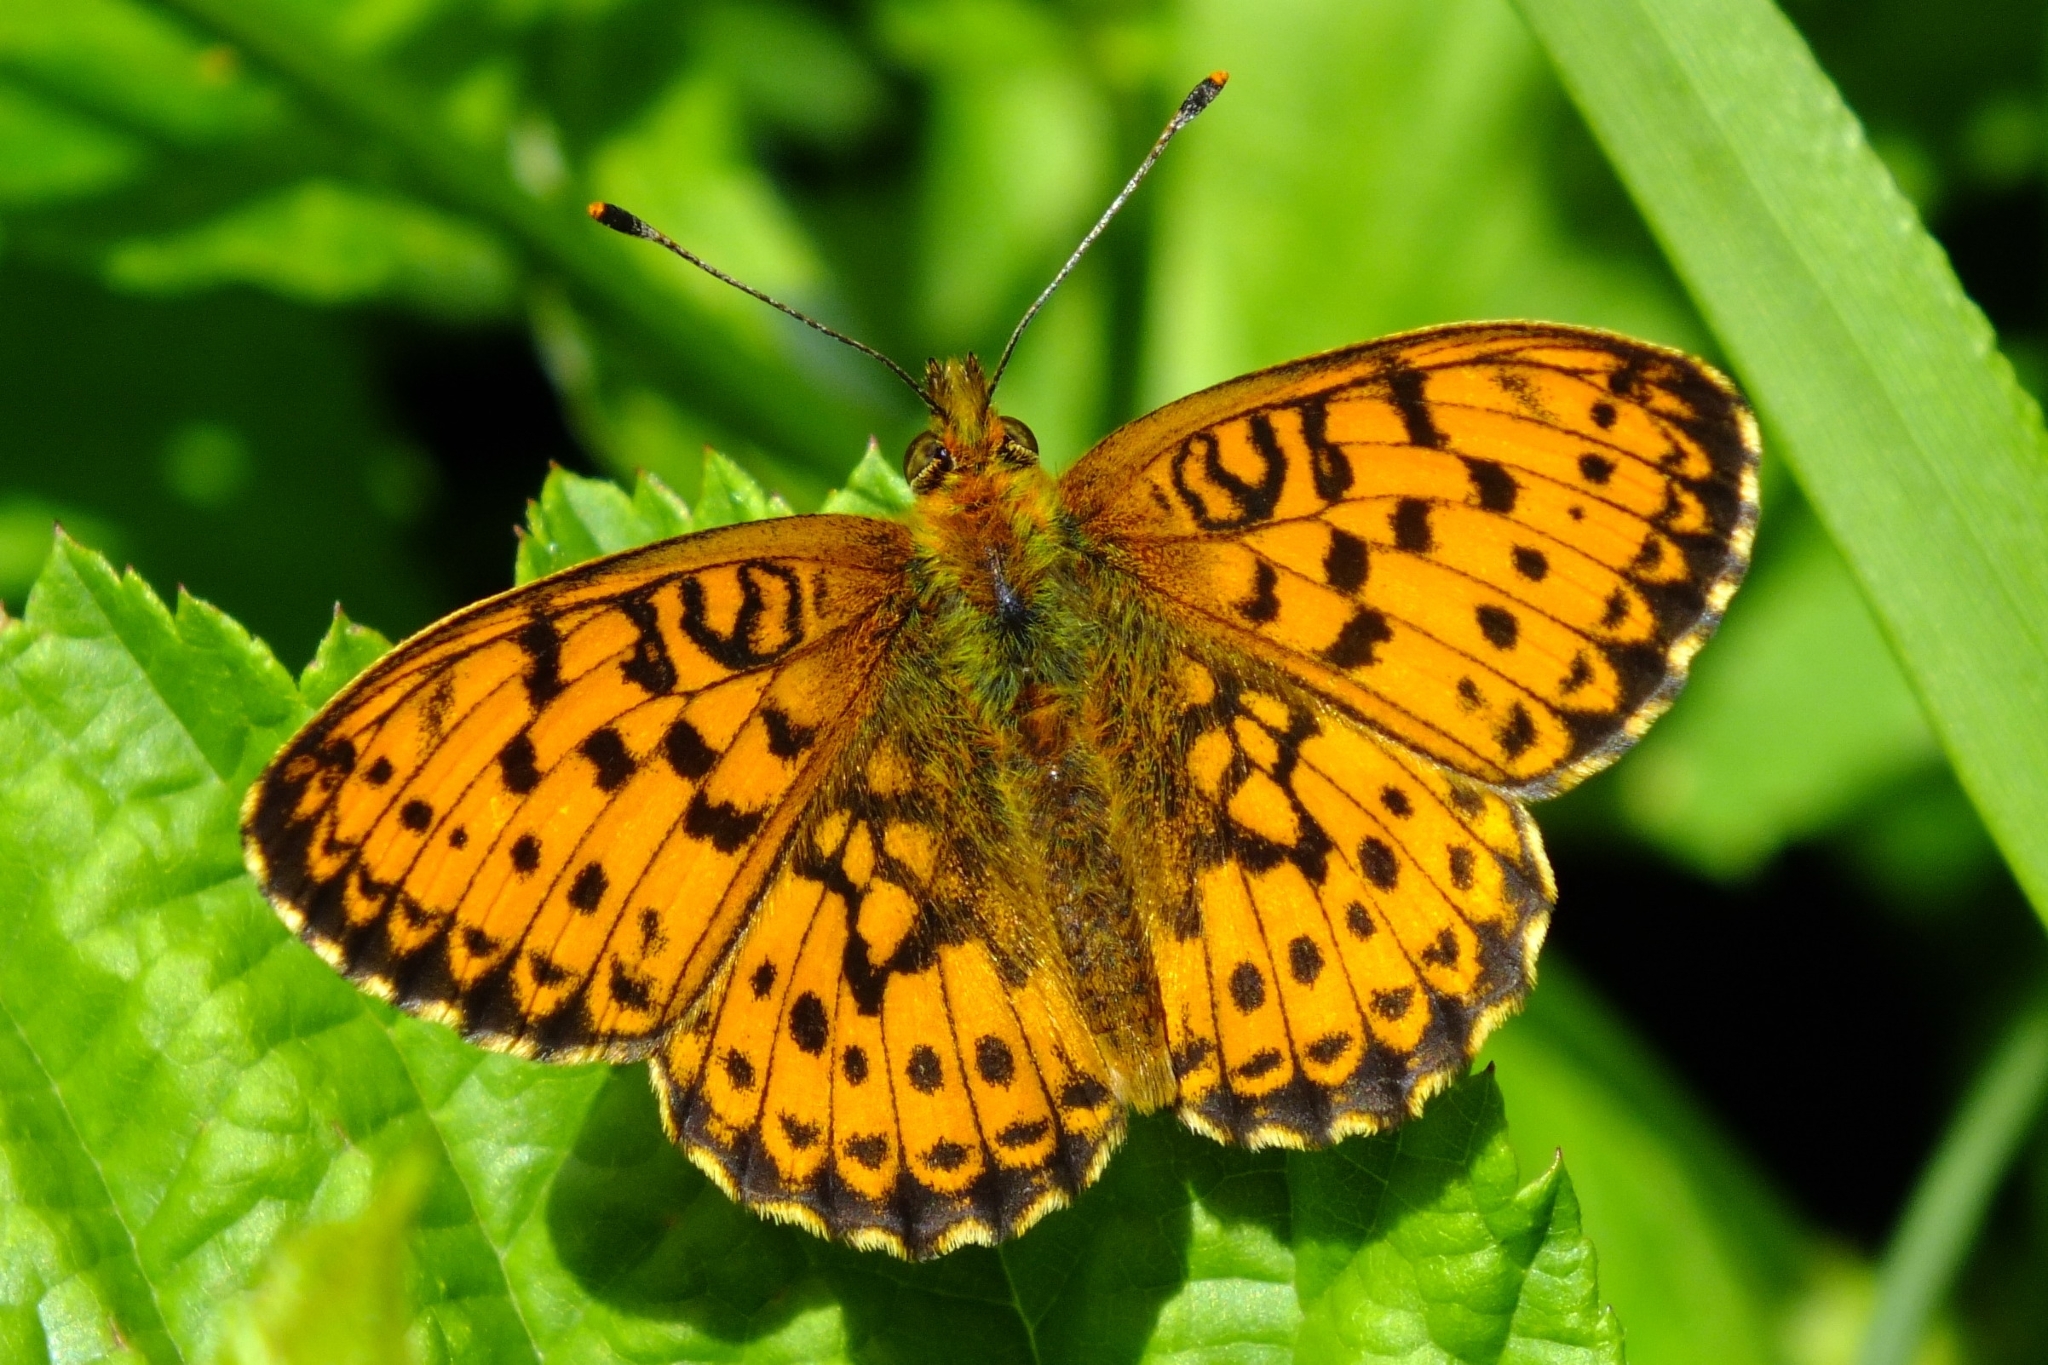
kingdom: Animalia
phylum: Arthropoda
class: Insecta
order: Lepidoptera
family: Nymphalidae
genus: Brenthis
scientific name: Brenthis ino
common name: Lesser marbled fritillary
